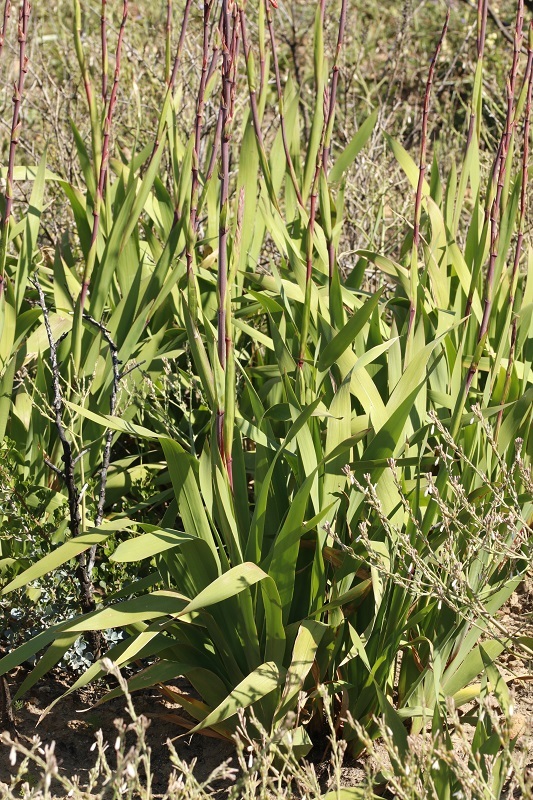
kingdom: Plantae
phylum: Tracheophyta
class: Liliopsida
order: Asparagales
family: Iridaceae
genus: Watsonia
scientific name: Watsonia meriana
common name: Bulbil bugle-lily
